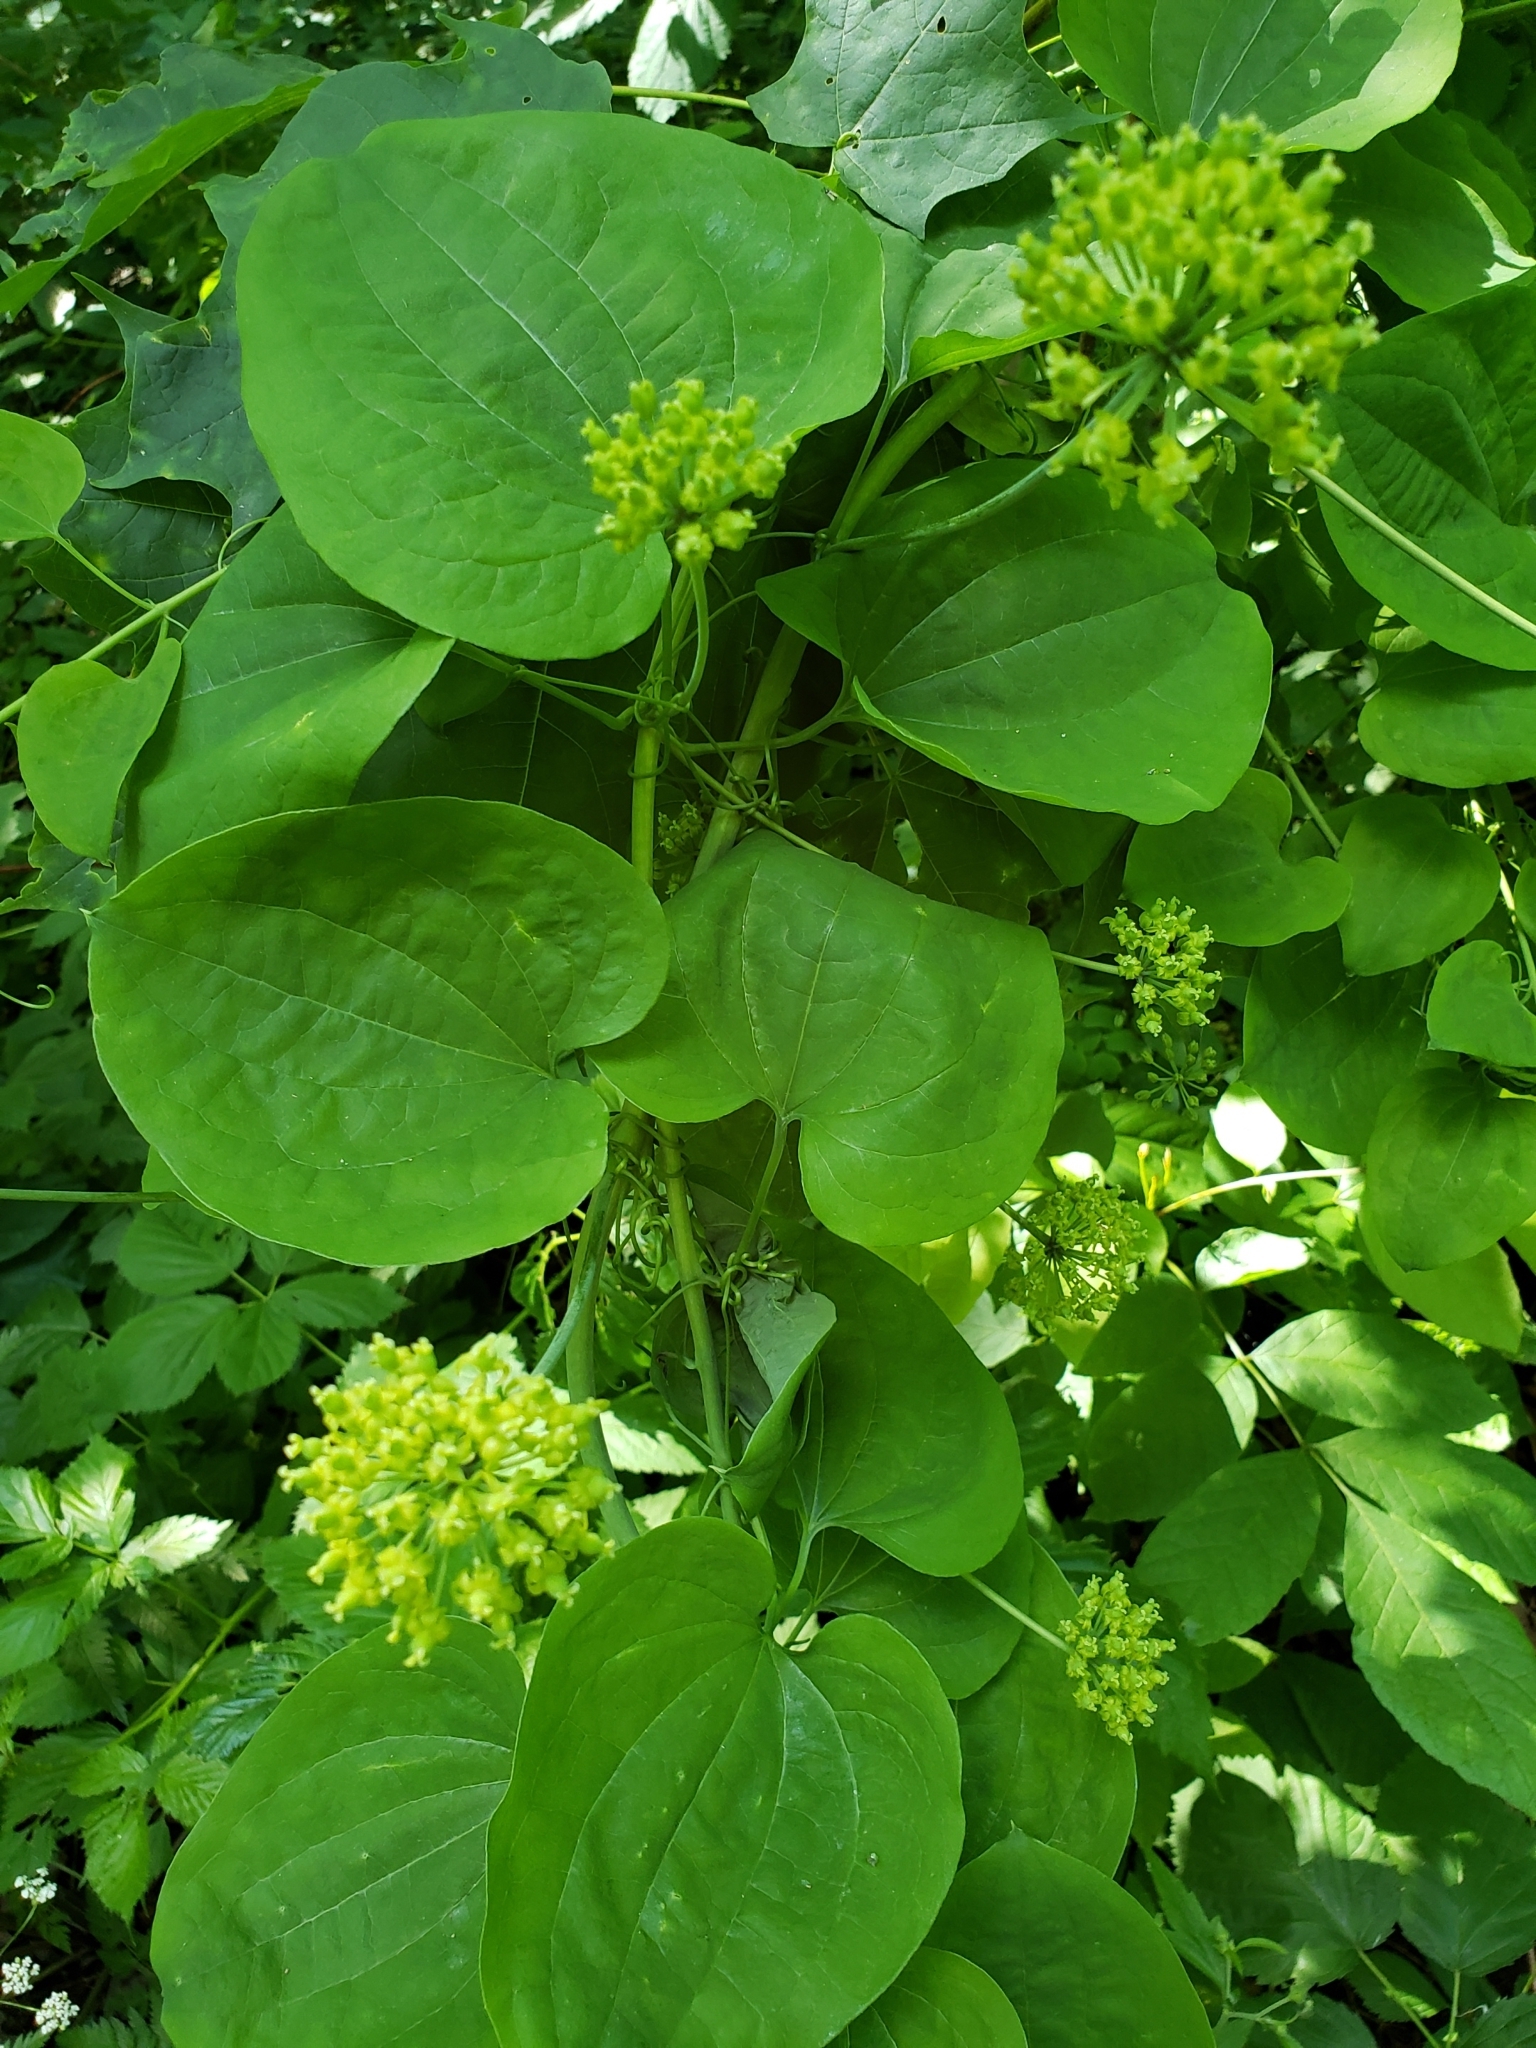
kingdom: Plantae
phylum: Tracheophyta
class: Liliopsida
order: Liliales
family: Smilacaceae
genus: Smilax
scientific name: Smilax herbacea
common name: Jacob's-ladder
